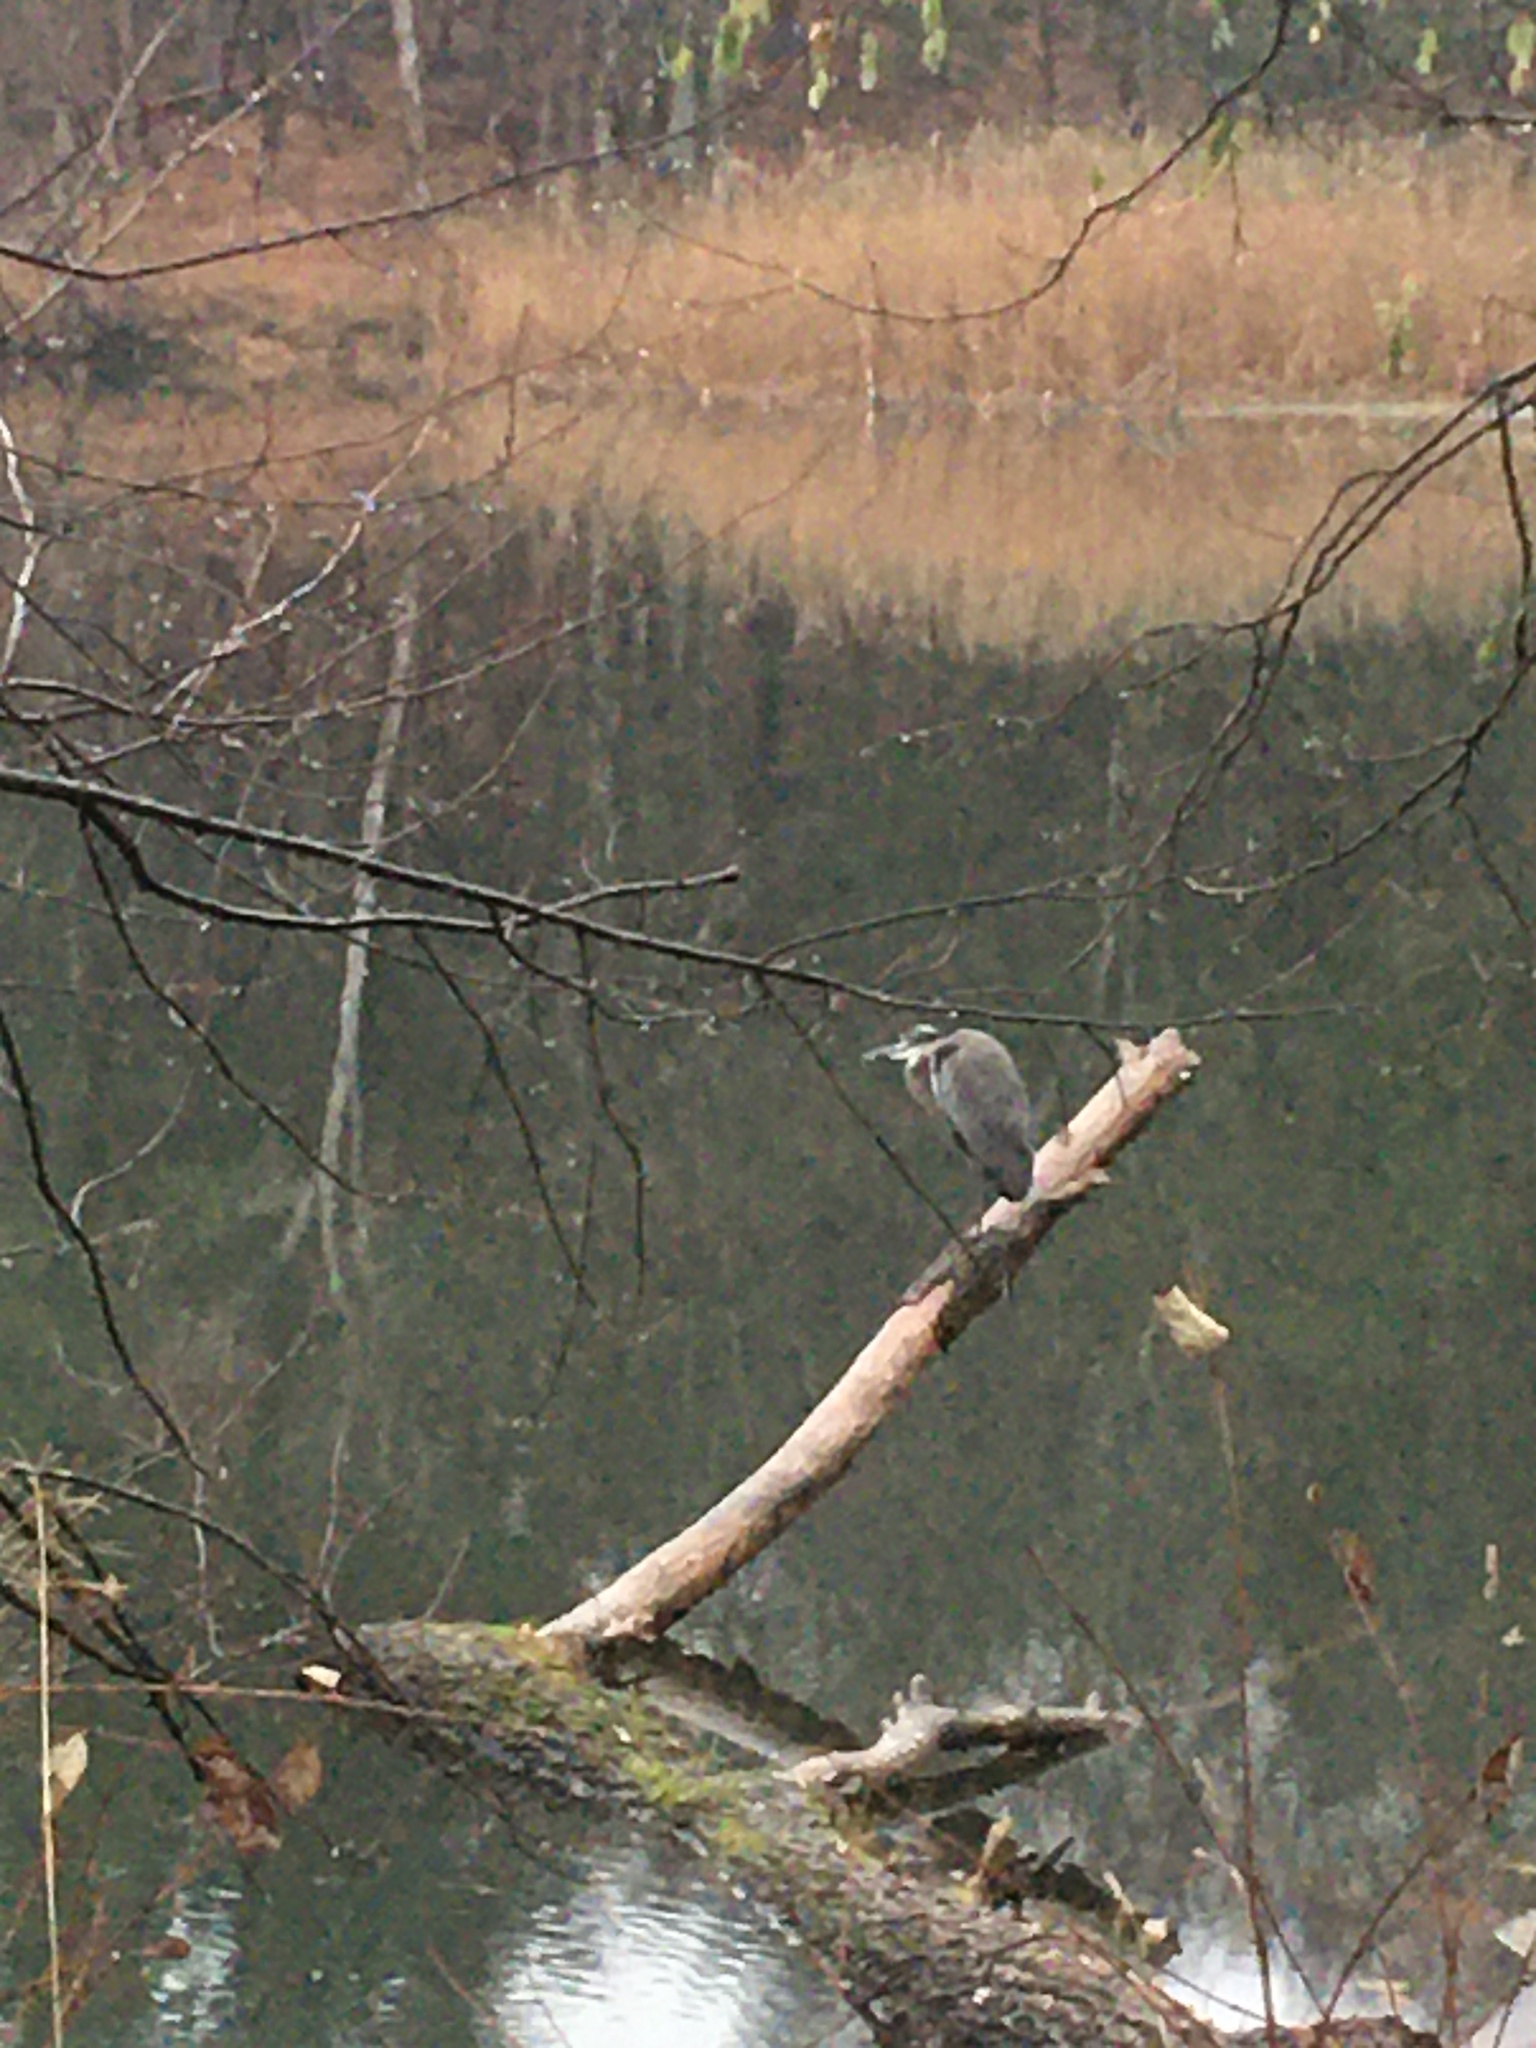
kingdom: Animalia
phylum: Chordata
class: Aves
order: Pelecaniformes
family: Ardeidae
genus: Ardea
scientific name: Ardea herodias
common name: Great blue heron
